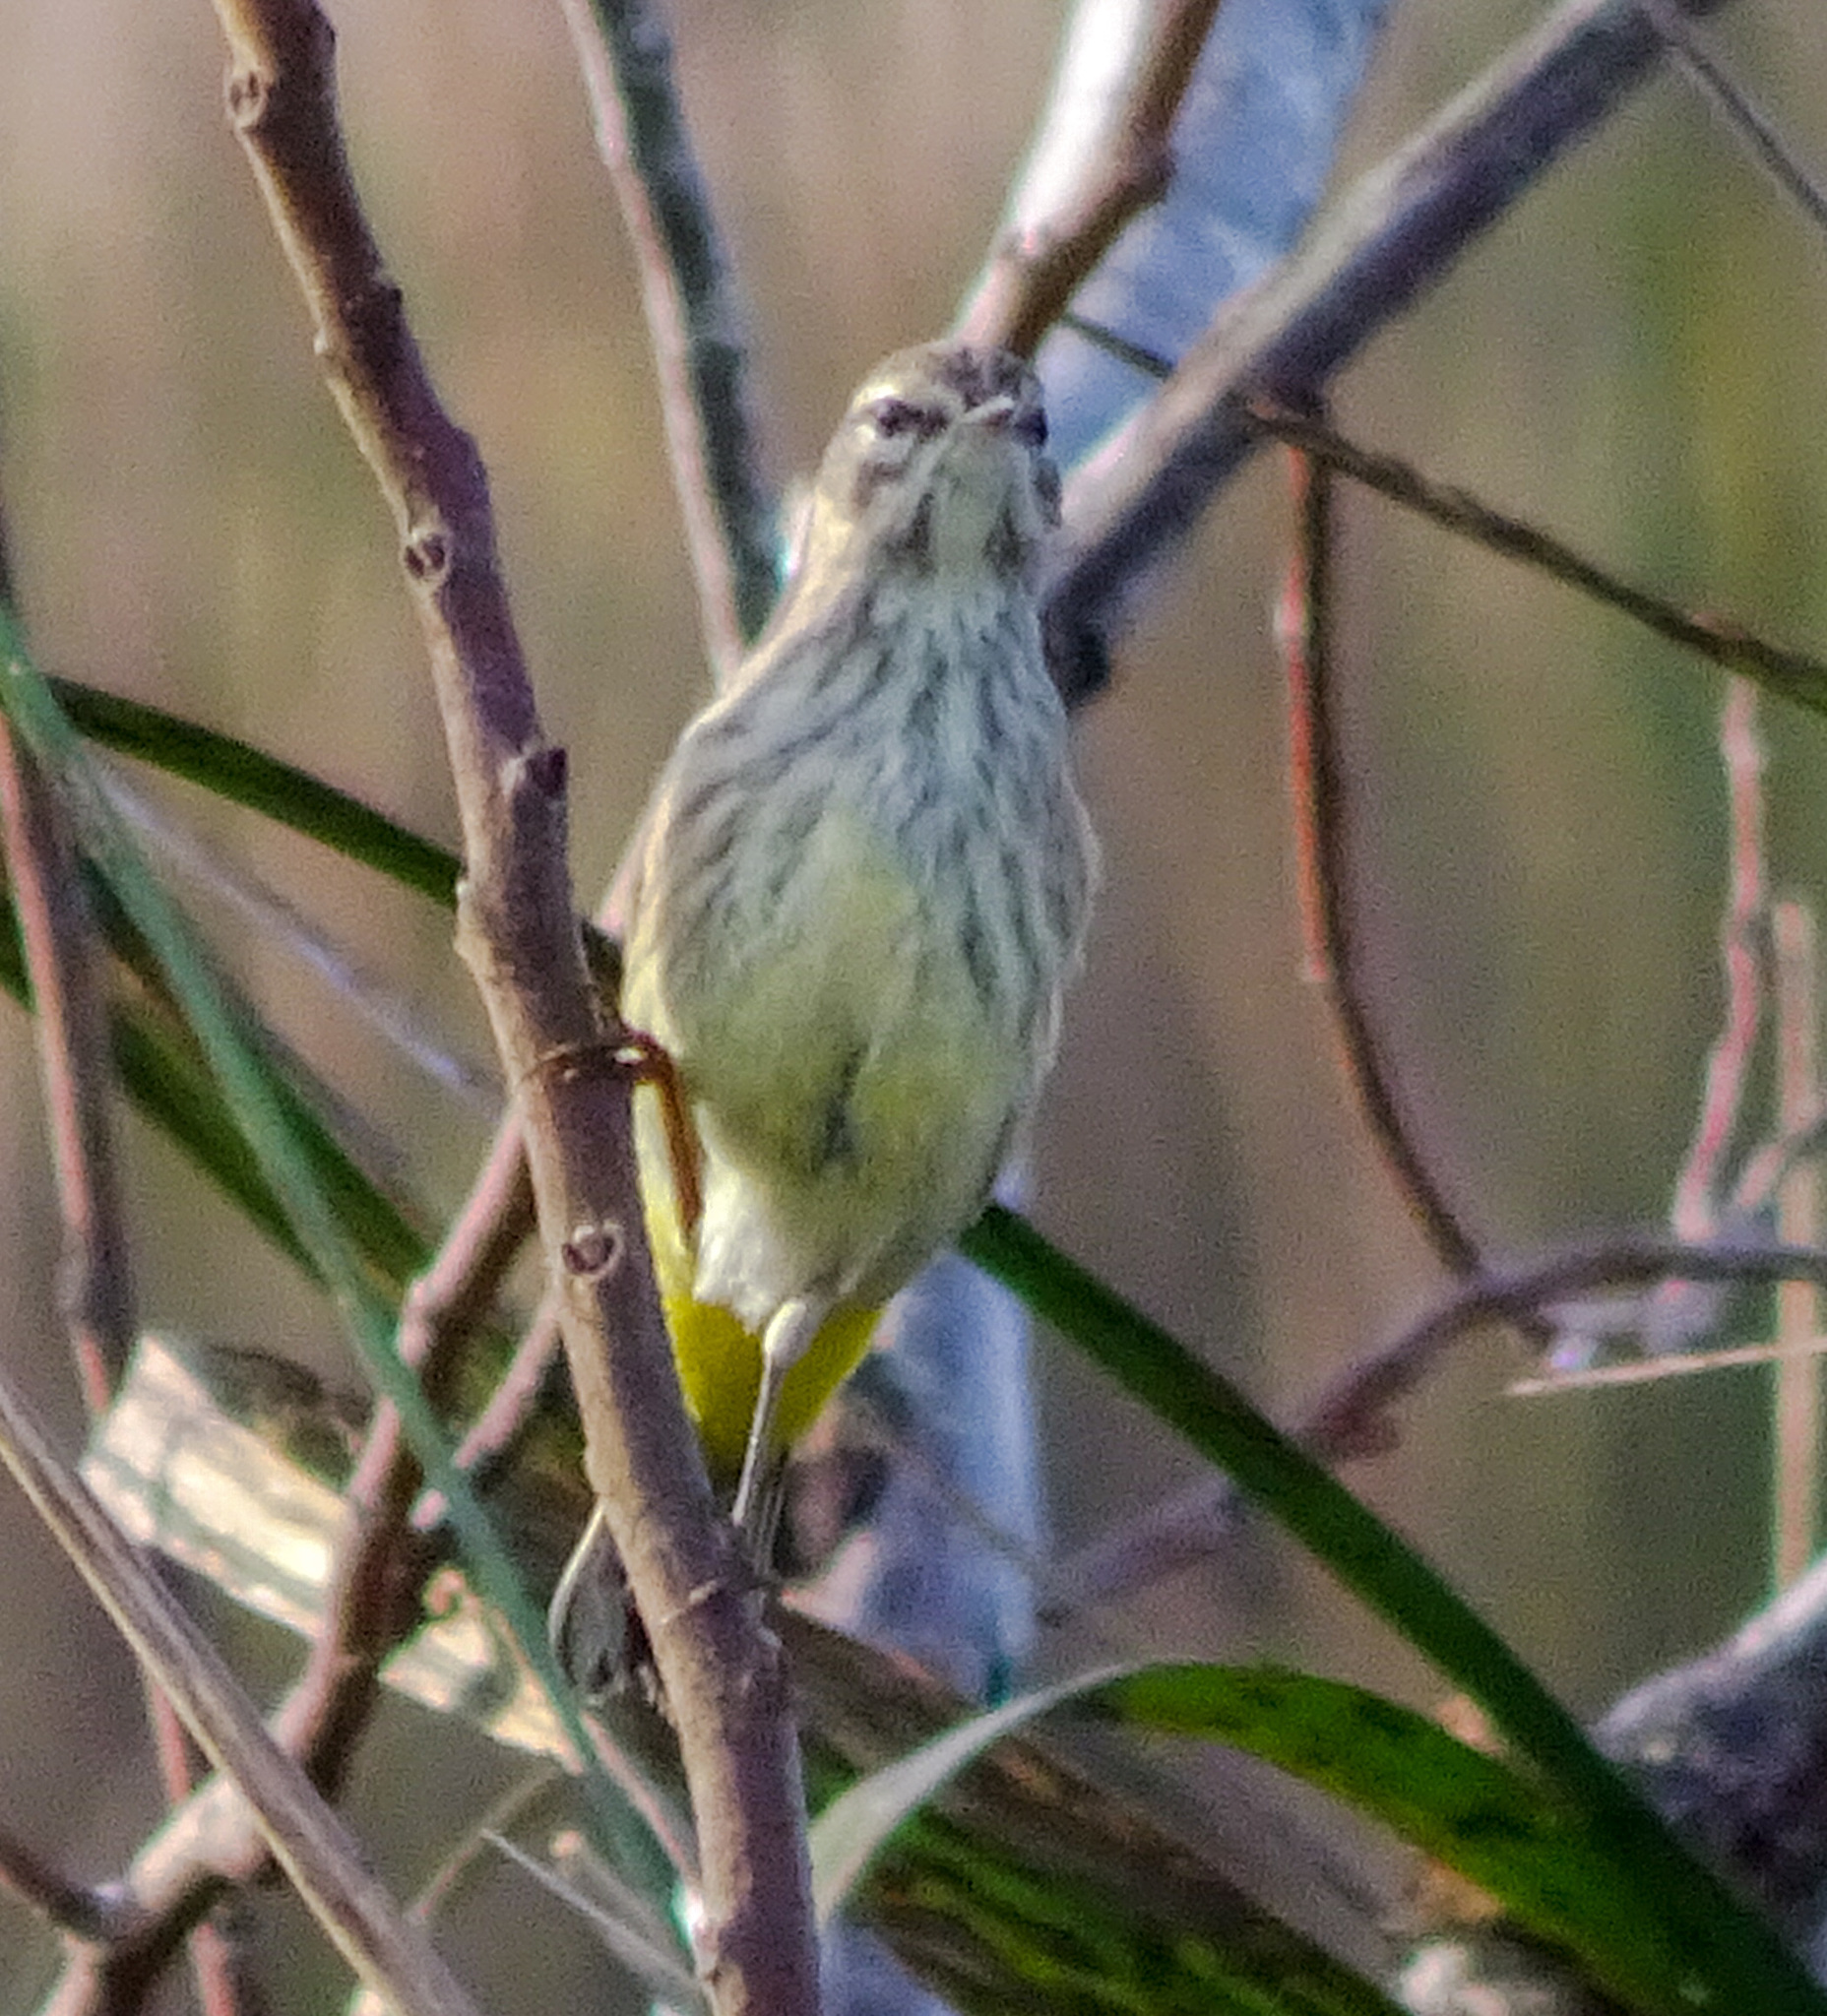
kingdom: Animalia
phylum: Chordata
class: Aves
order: Passeriformes
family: Parulidae
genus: Setophaga
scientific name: Setophaga palmarum
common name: Palm warbler
